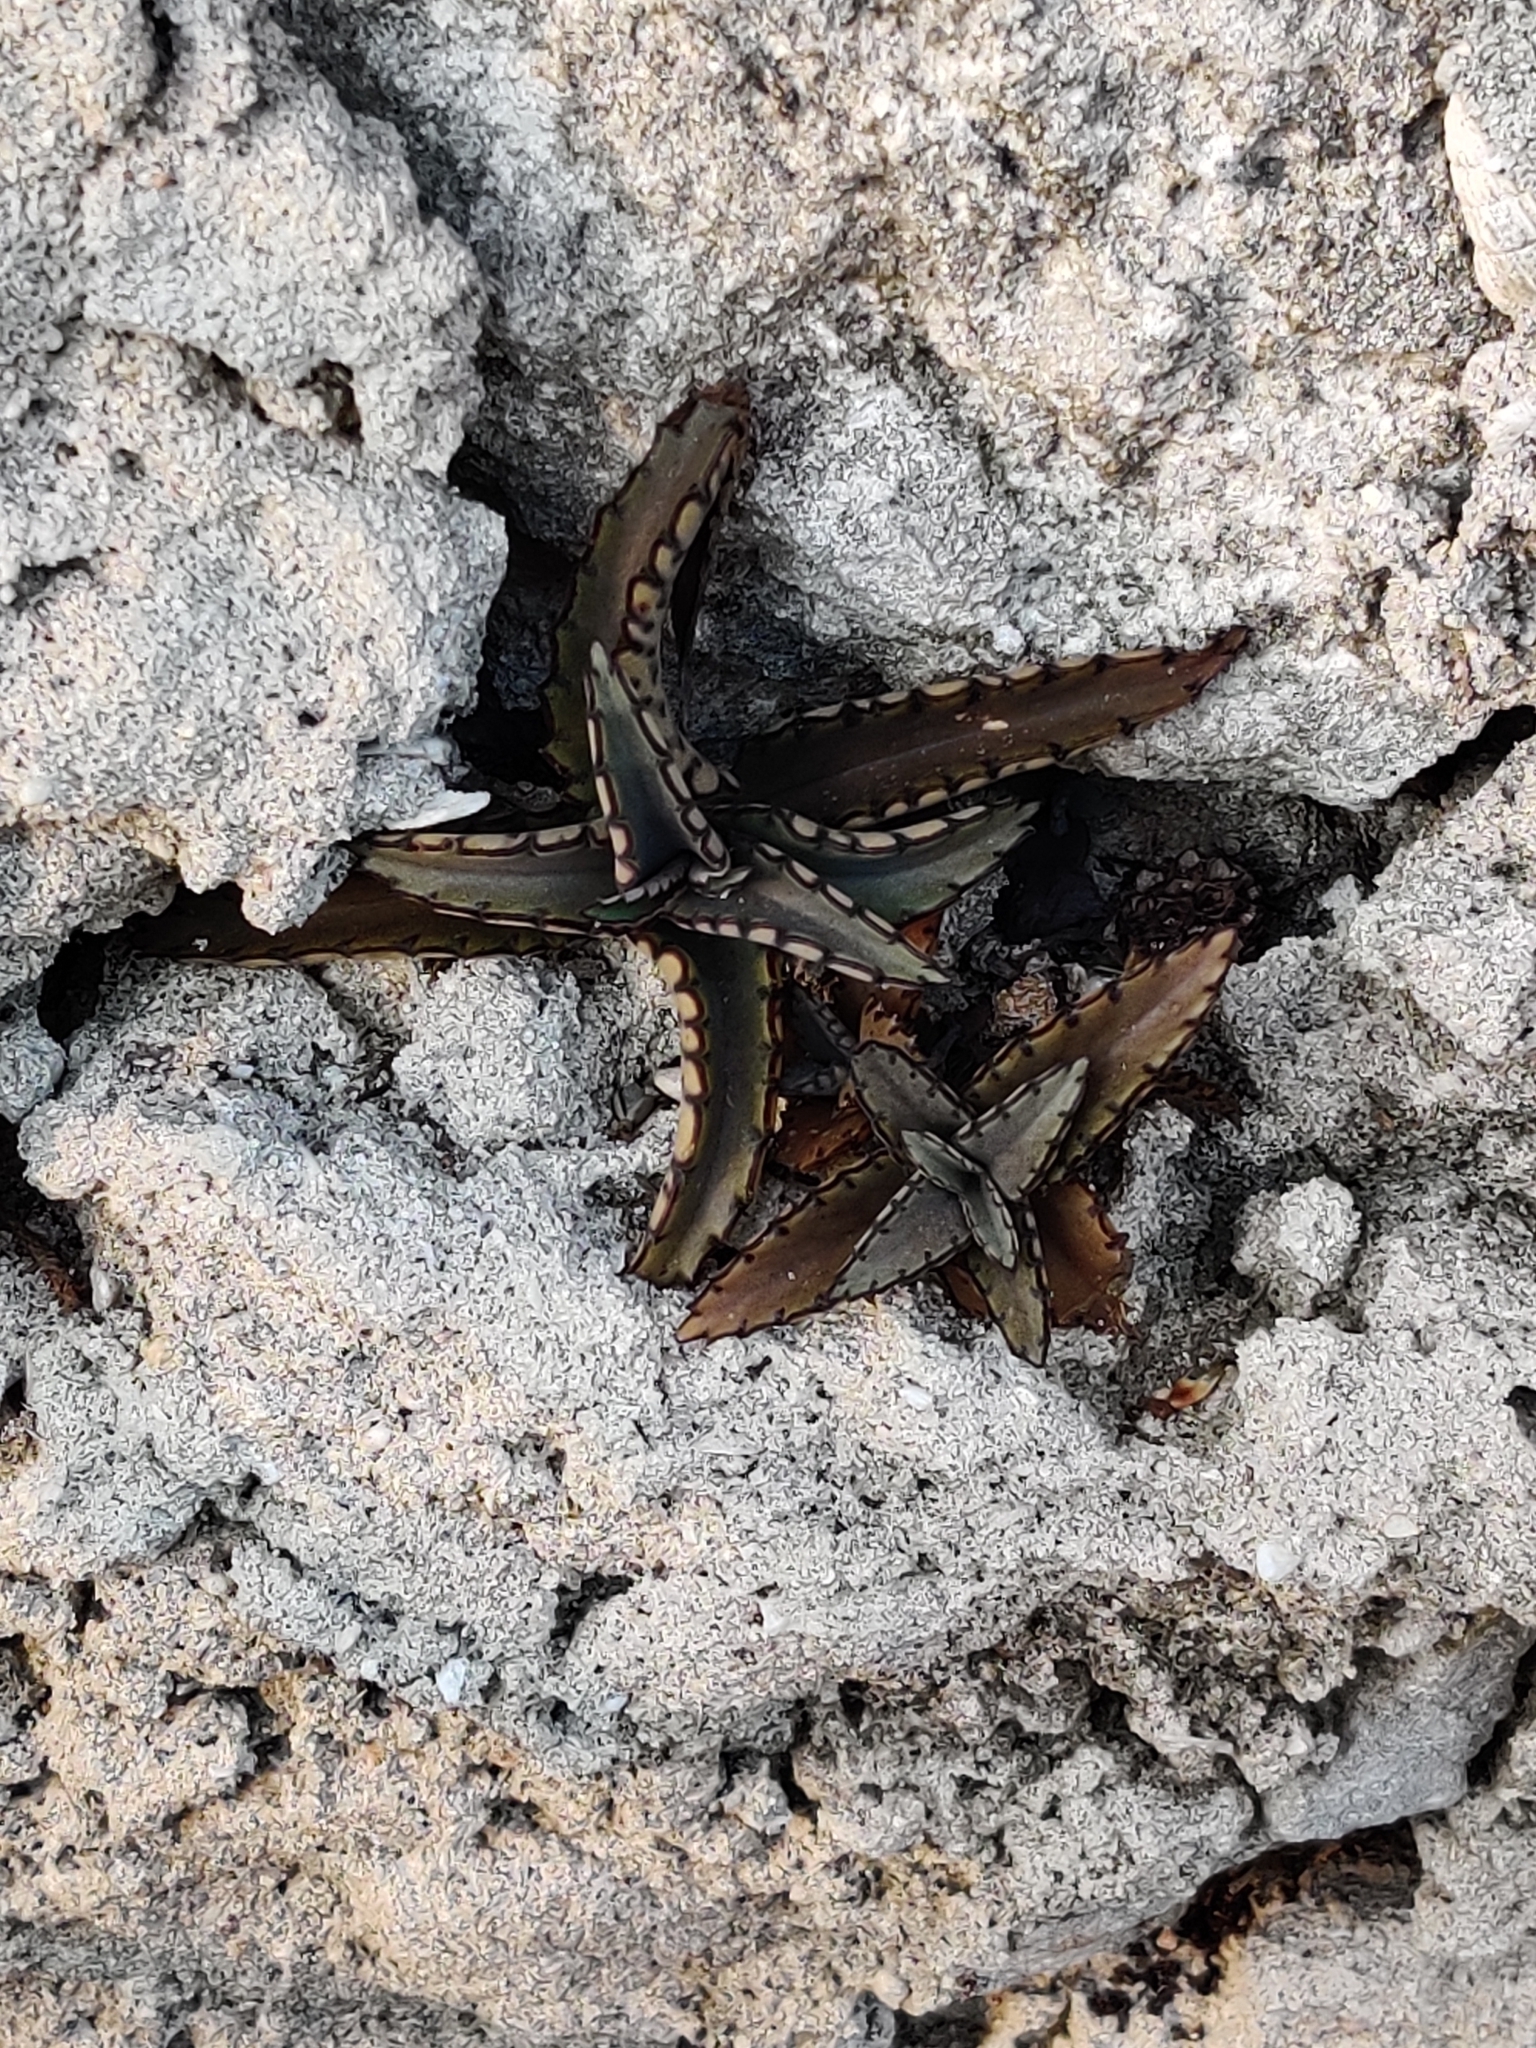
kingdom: Plantae
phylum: Tracheophyta
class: Magnoliopsida
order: Saxifragales
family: Crassulaceae
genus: Kalanchoe
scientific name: Kalanchoe daigremontiana
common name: Devil's backbone
